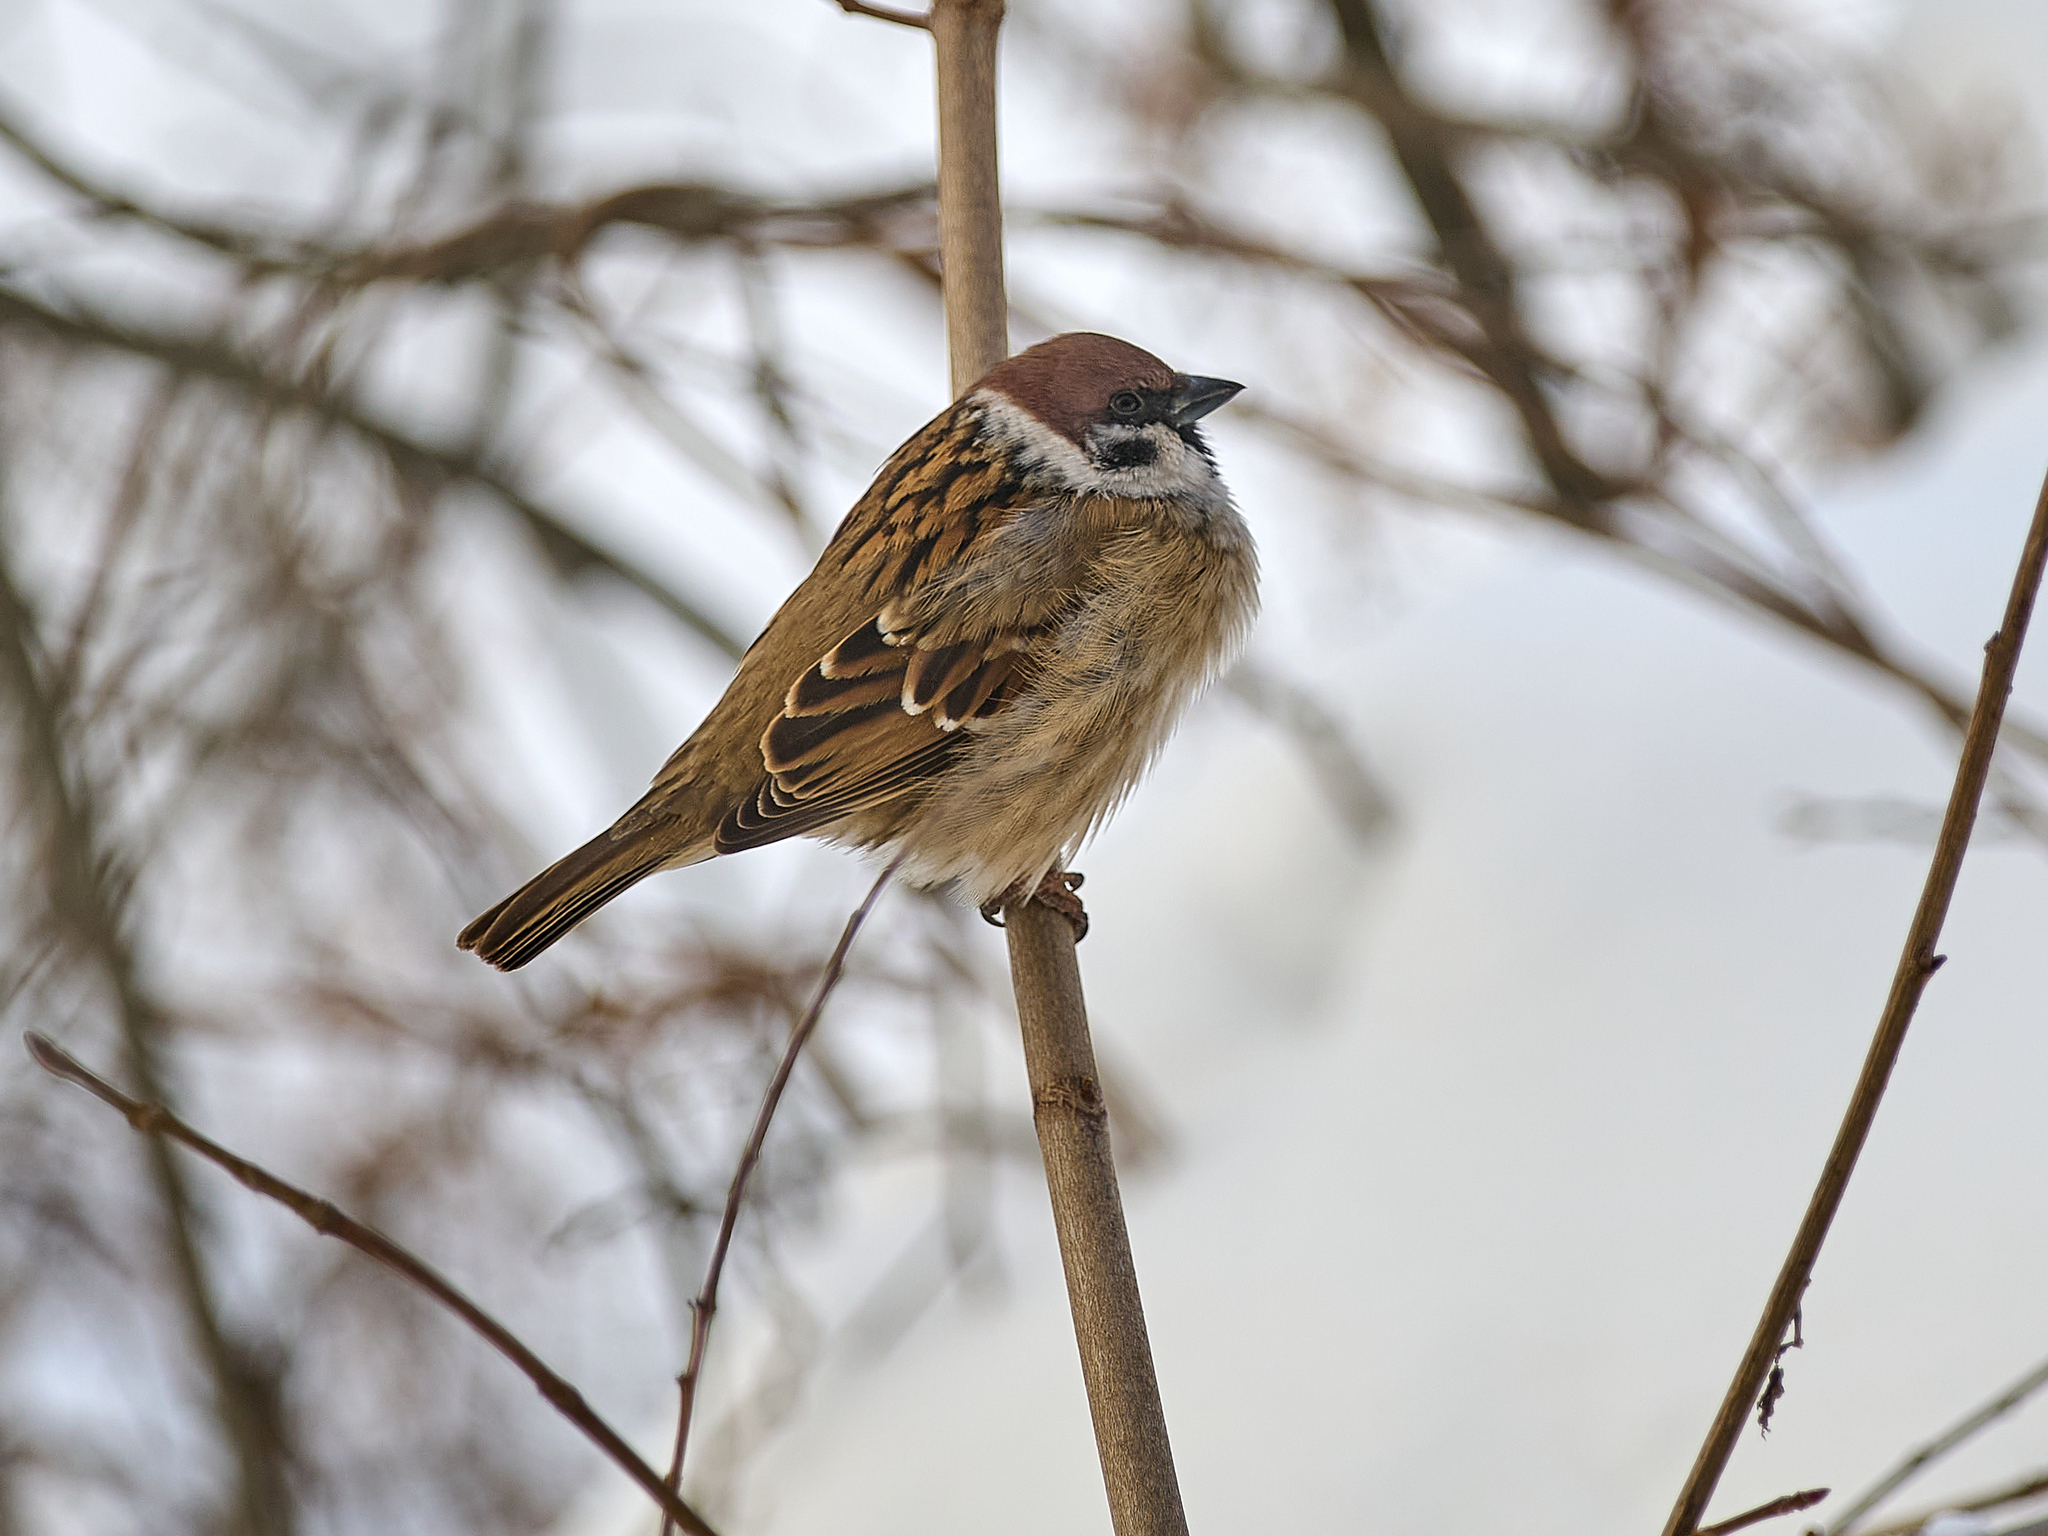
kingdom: Animalia
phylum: Chordata
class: Aves
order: Passeriformes
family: Passeridae
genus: Passer
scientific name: Passer montanus
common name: Eurasian tree sparrow
